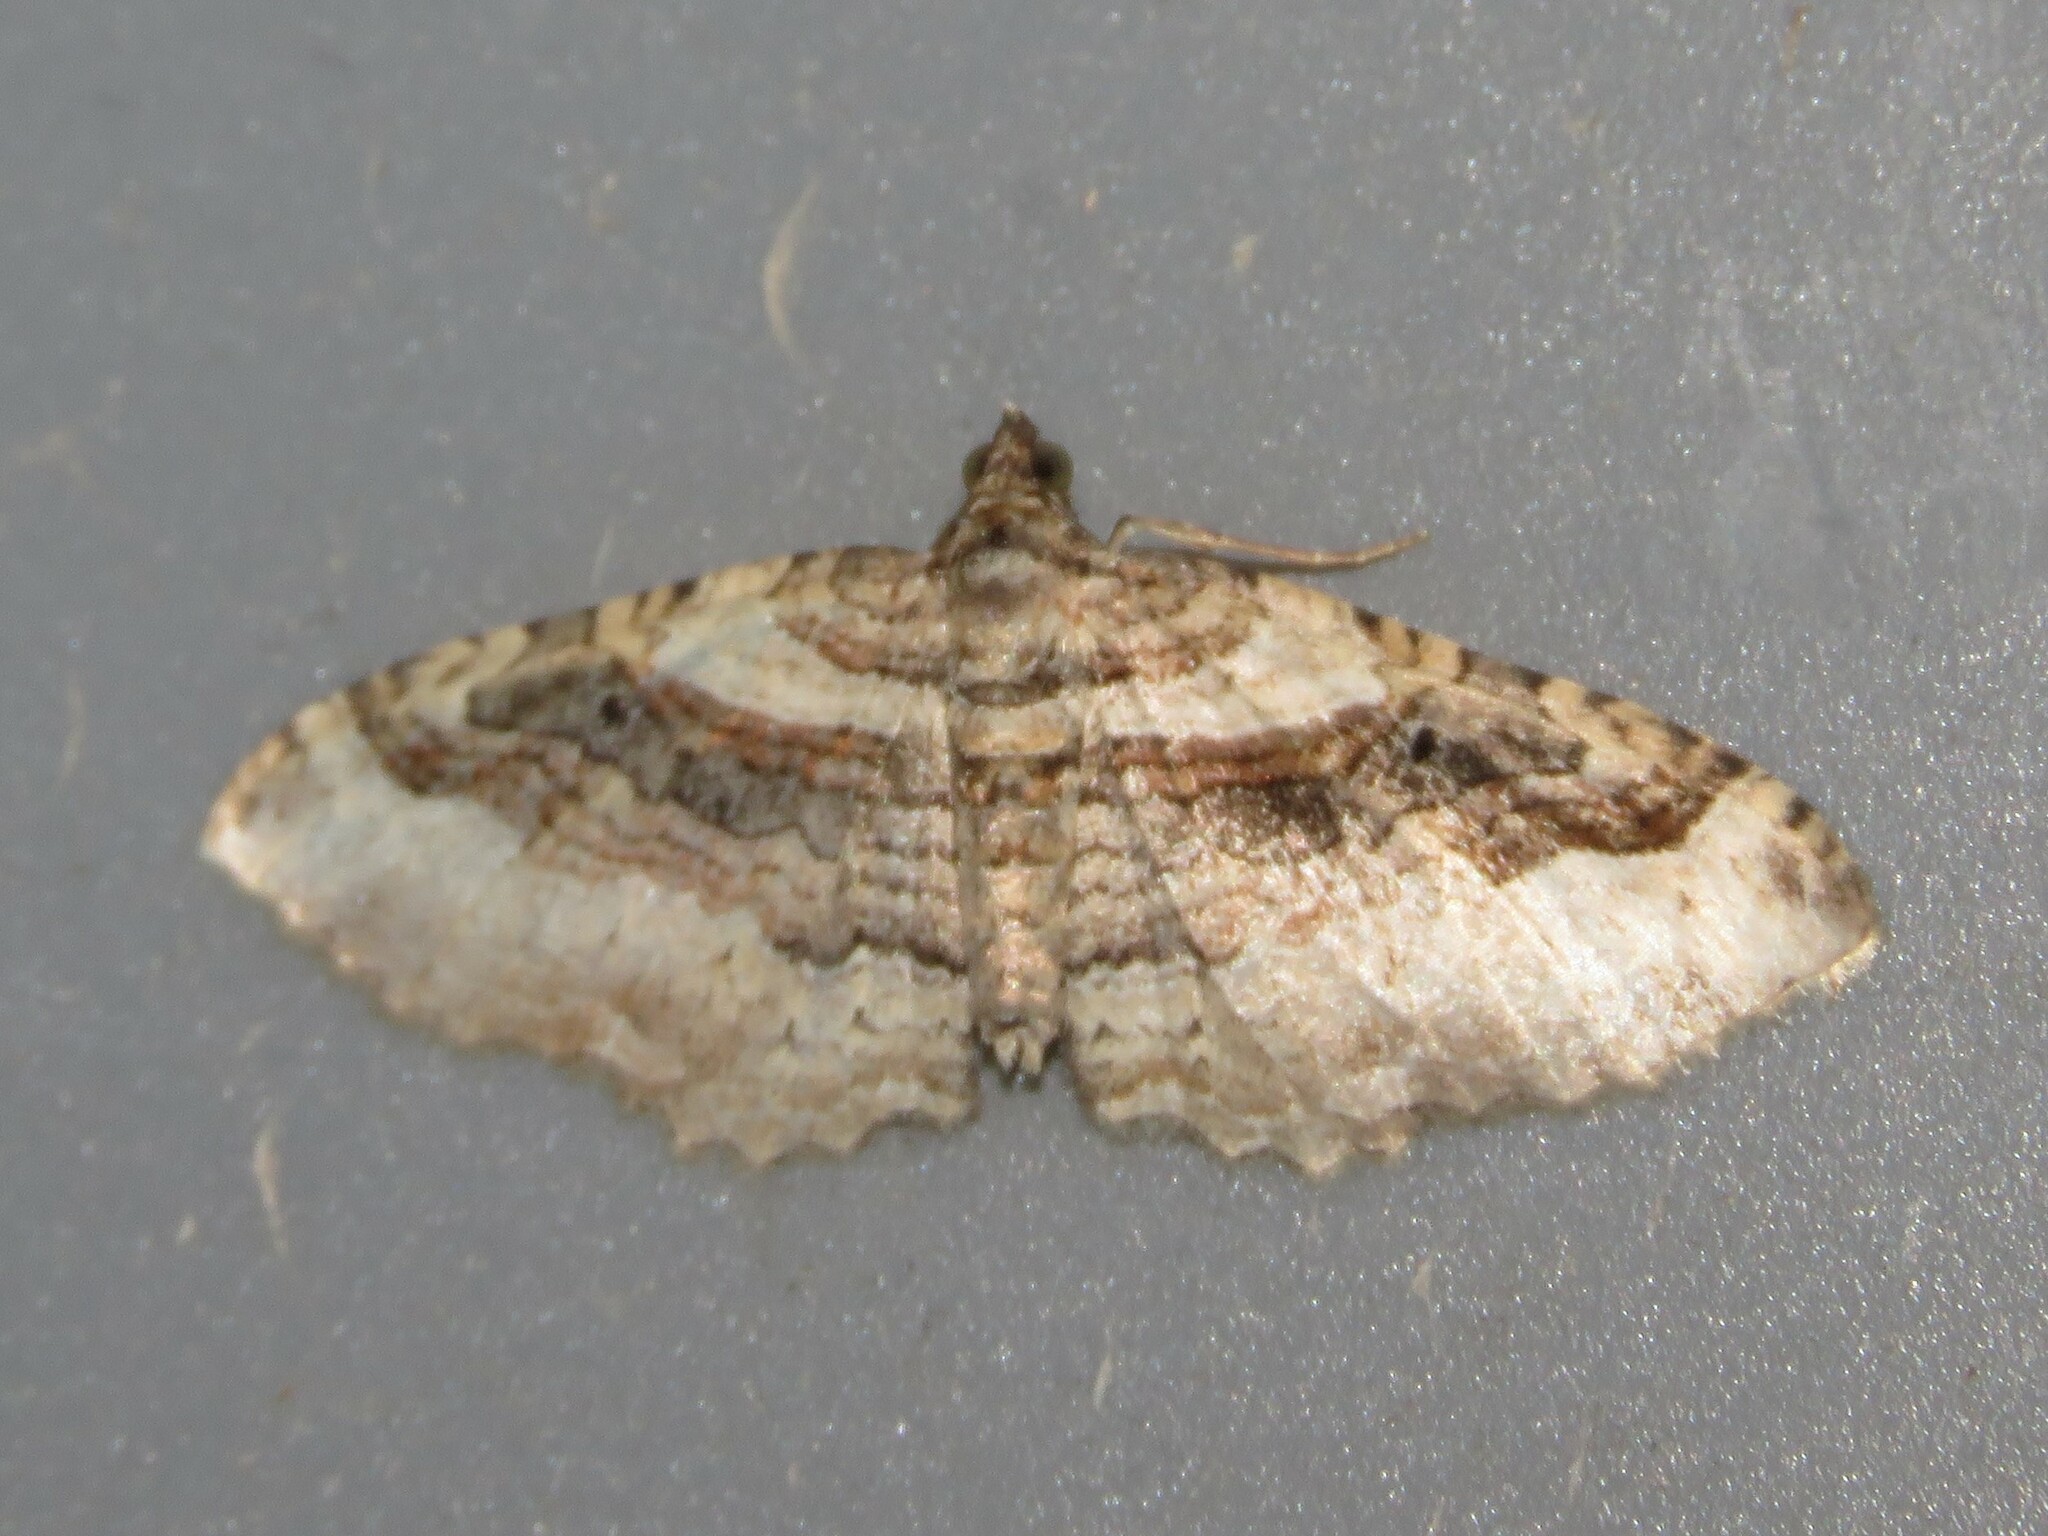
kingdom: Animalia
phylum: Arthropoda
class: Insecta
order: Lepidoptera
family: Geometridae
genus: Costaconvexa
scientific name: Costaconvexa centrostrigaria
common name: Bent-line carpet
